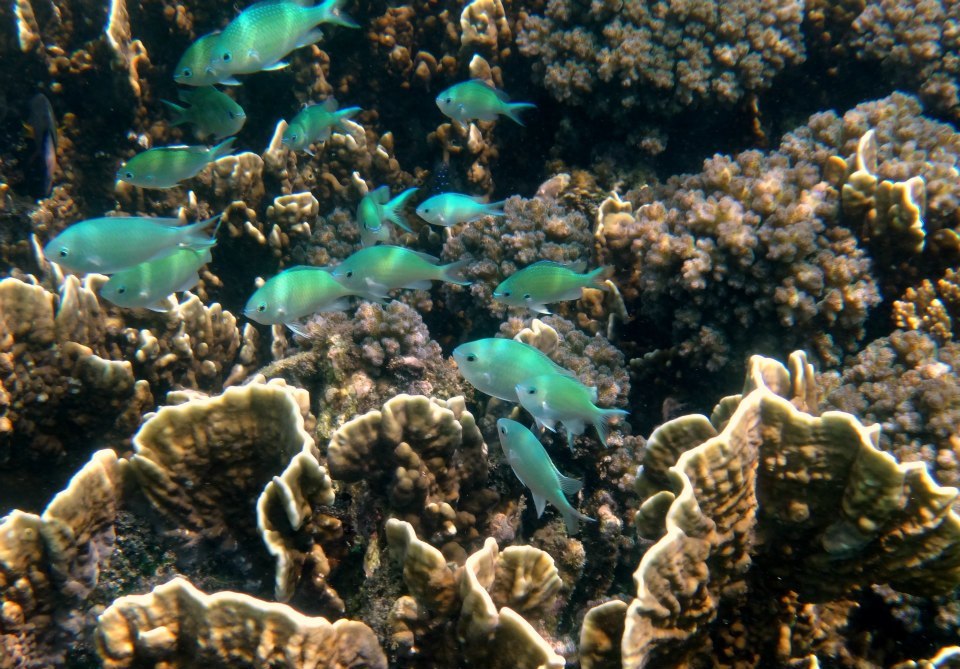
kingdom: Animalia
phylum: Chordata
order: Perciformes
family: Pomacentridae
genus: Chromis
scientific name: Chromis viridis
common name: Blue-green chromis
